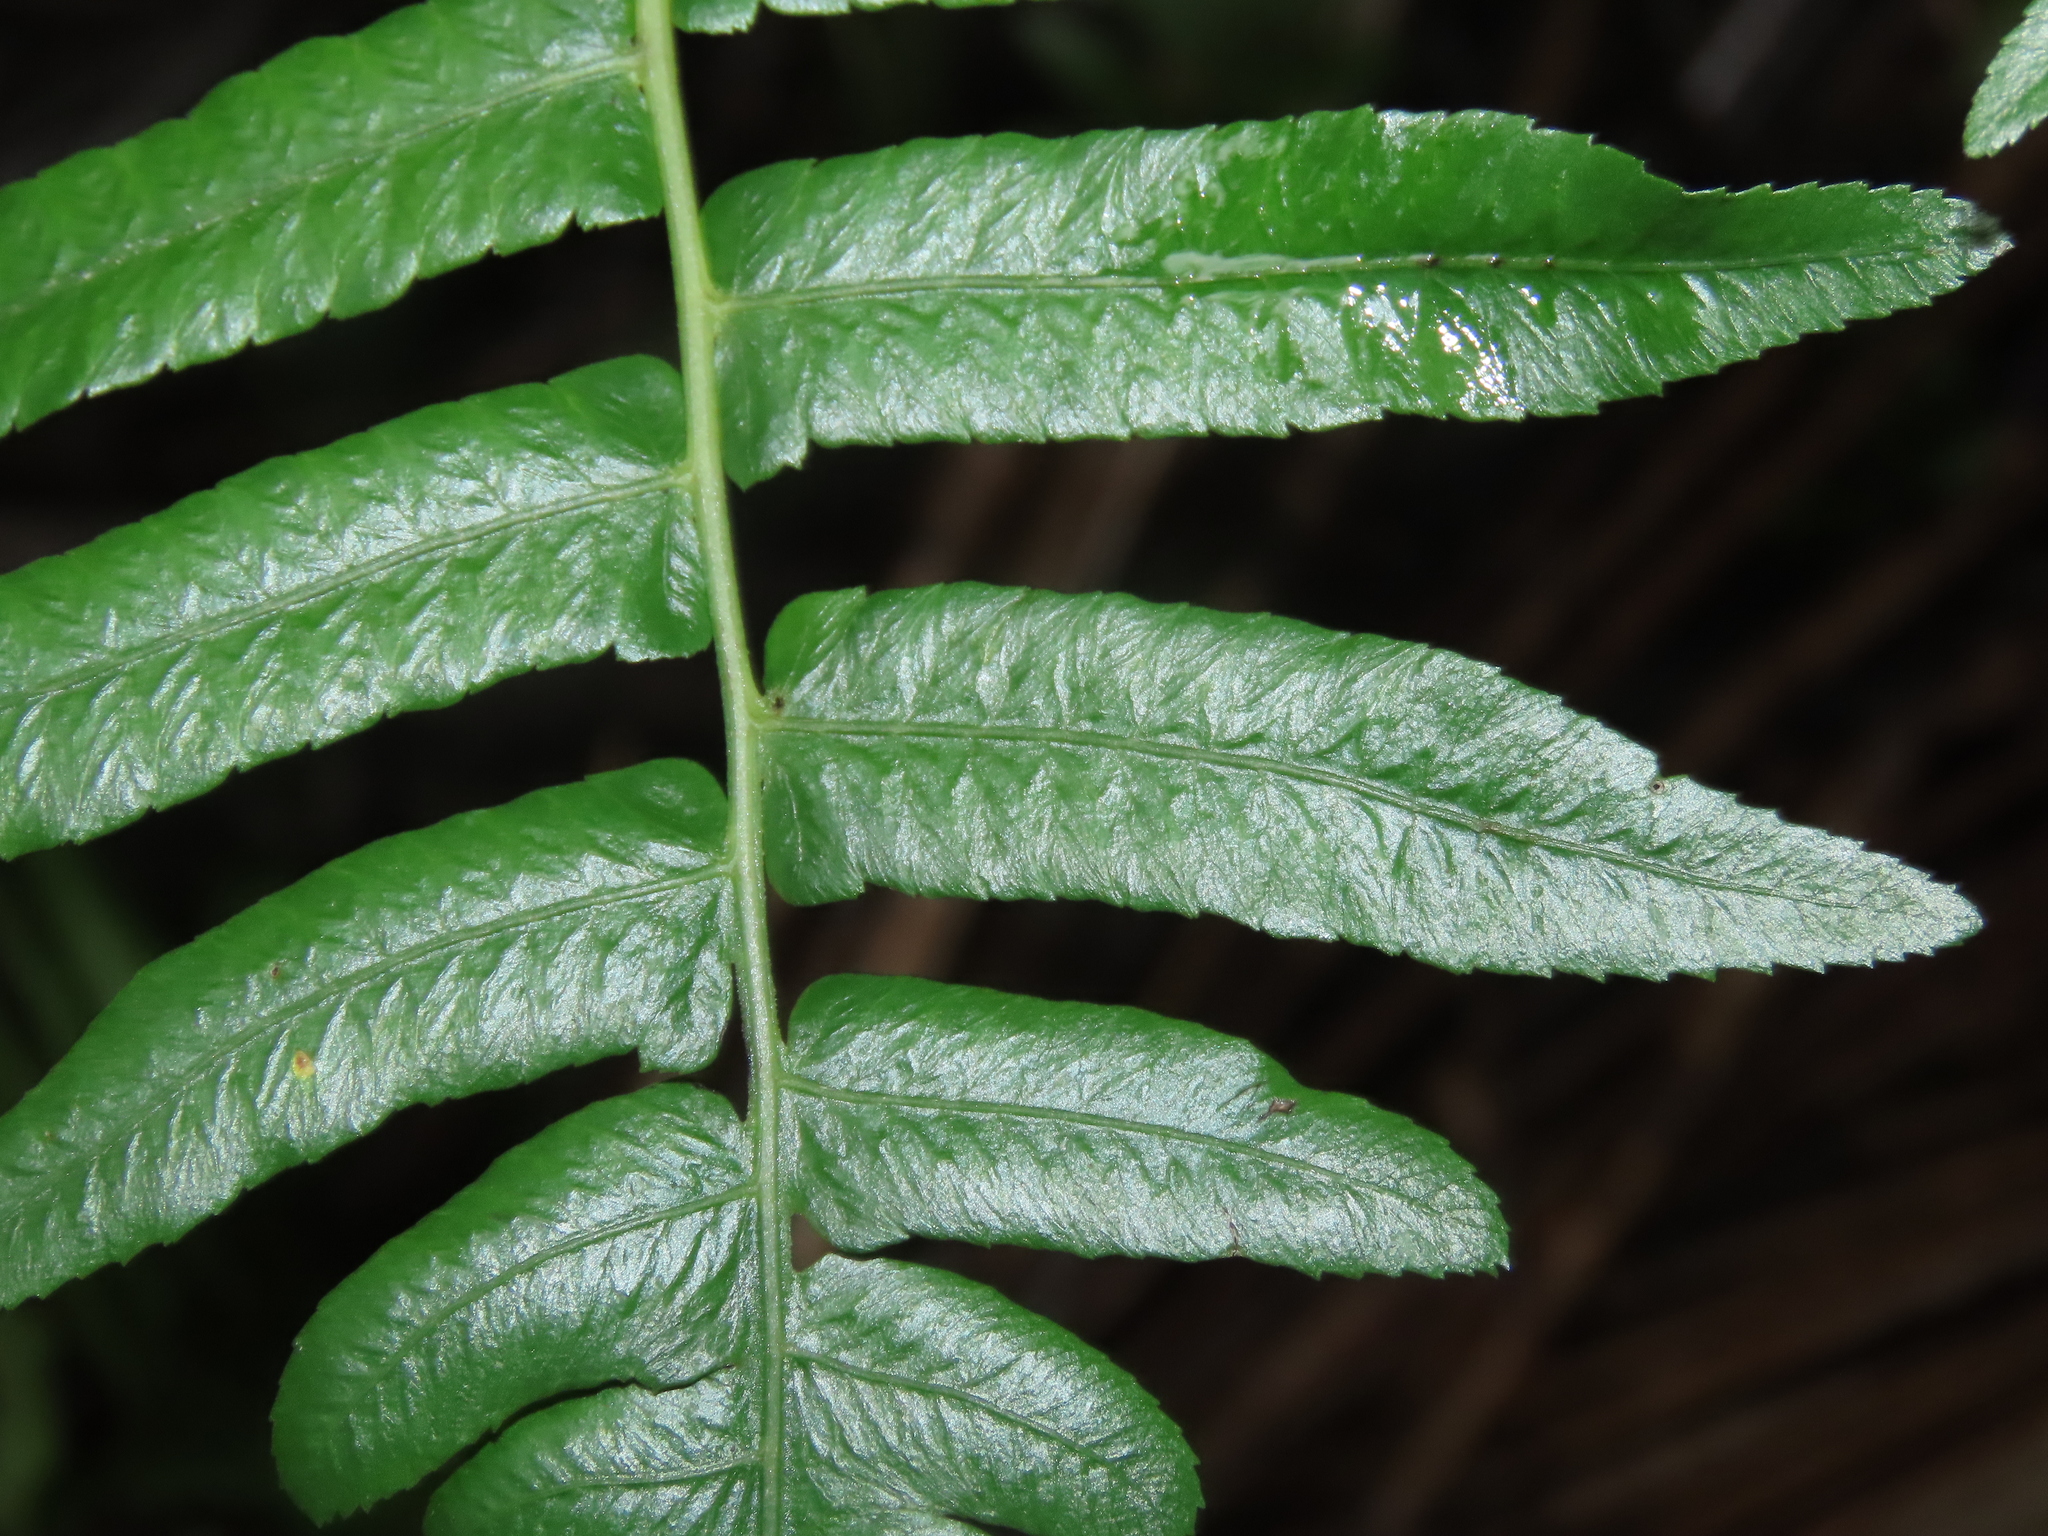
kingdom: Plantae
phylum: Tracheophyta
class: Polypodiopsida
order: Polypodiales
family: Athyriaceae
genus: Diplazium
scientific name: Diplazium esculentum
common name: Vegetable fern
